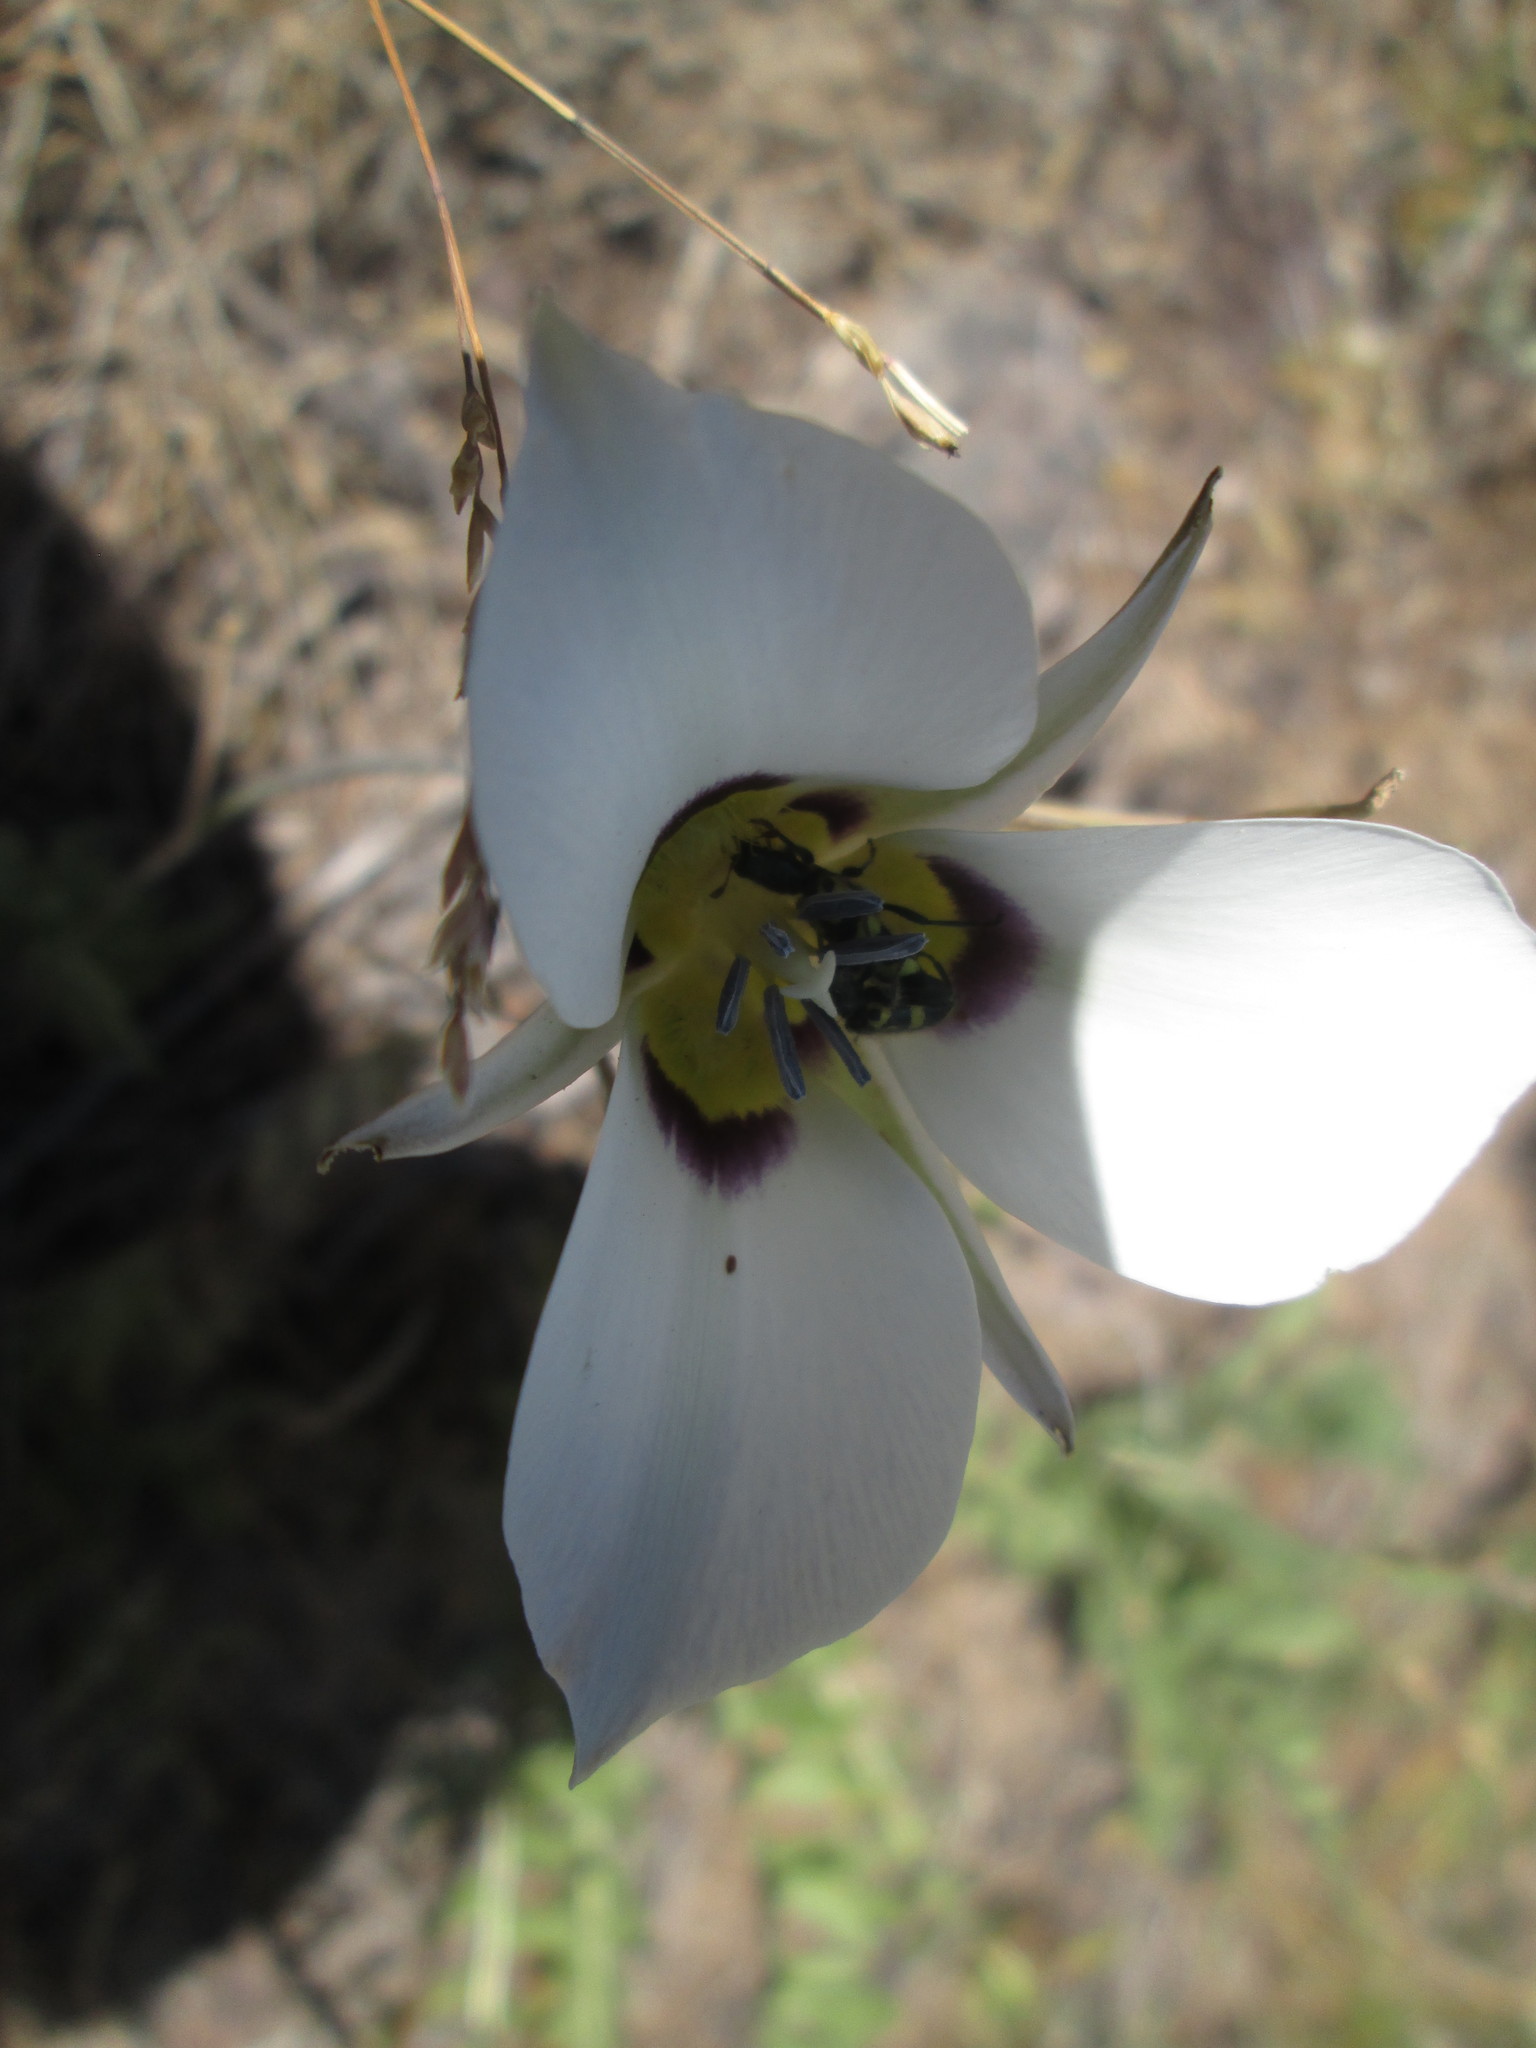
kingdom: Plantae
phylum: Tracheophyta
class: Liliopsida
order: Liliales
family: Liliaceae
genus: Calochortus
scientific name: Calochortus bruneaunis
